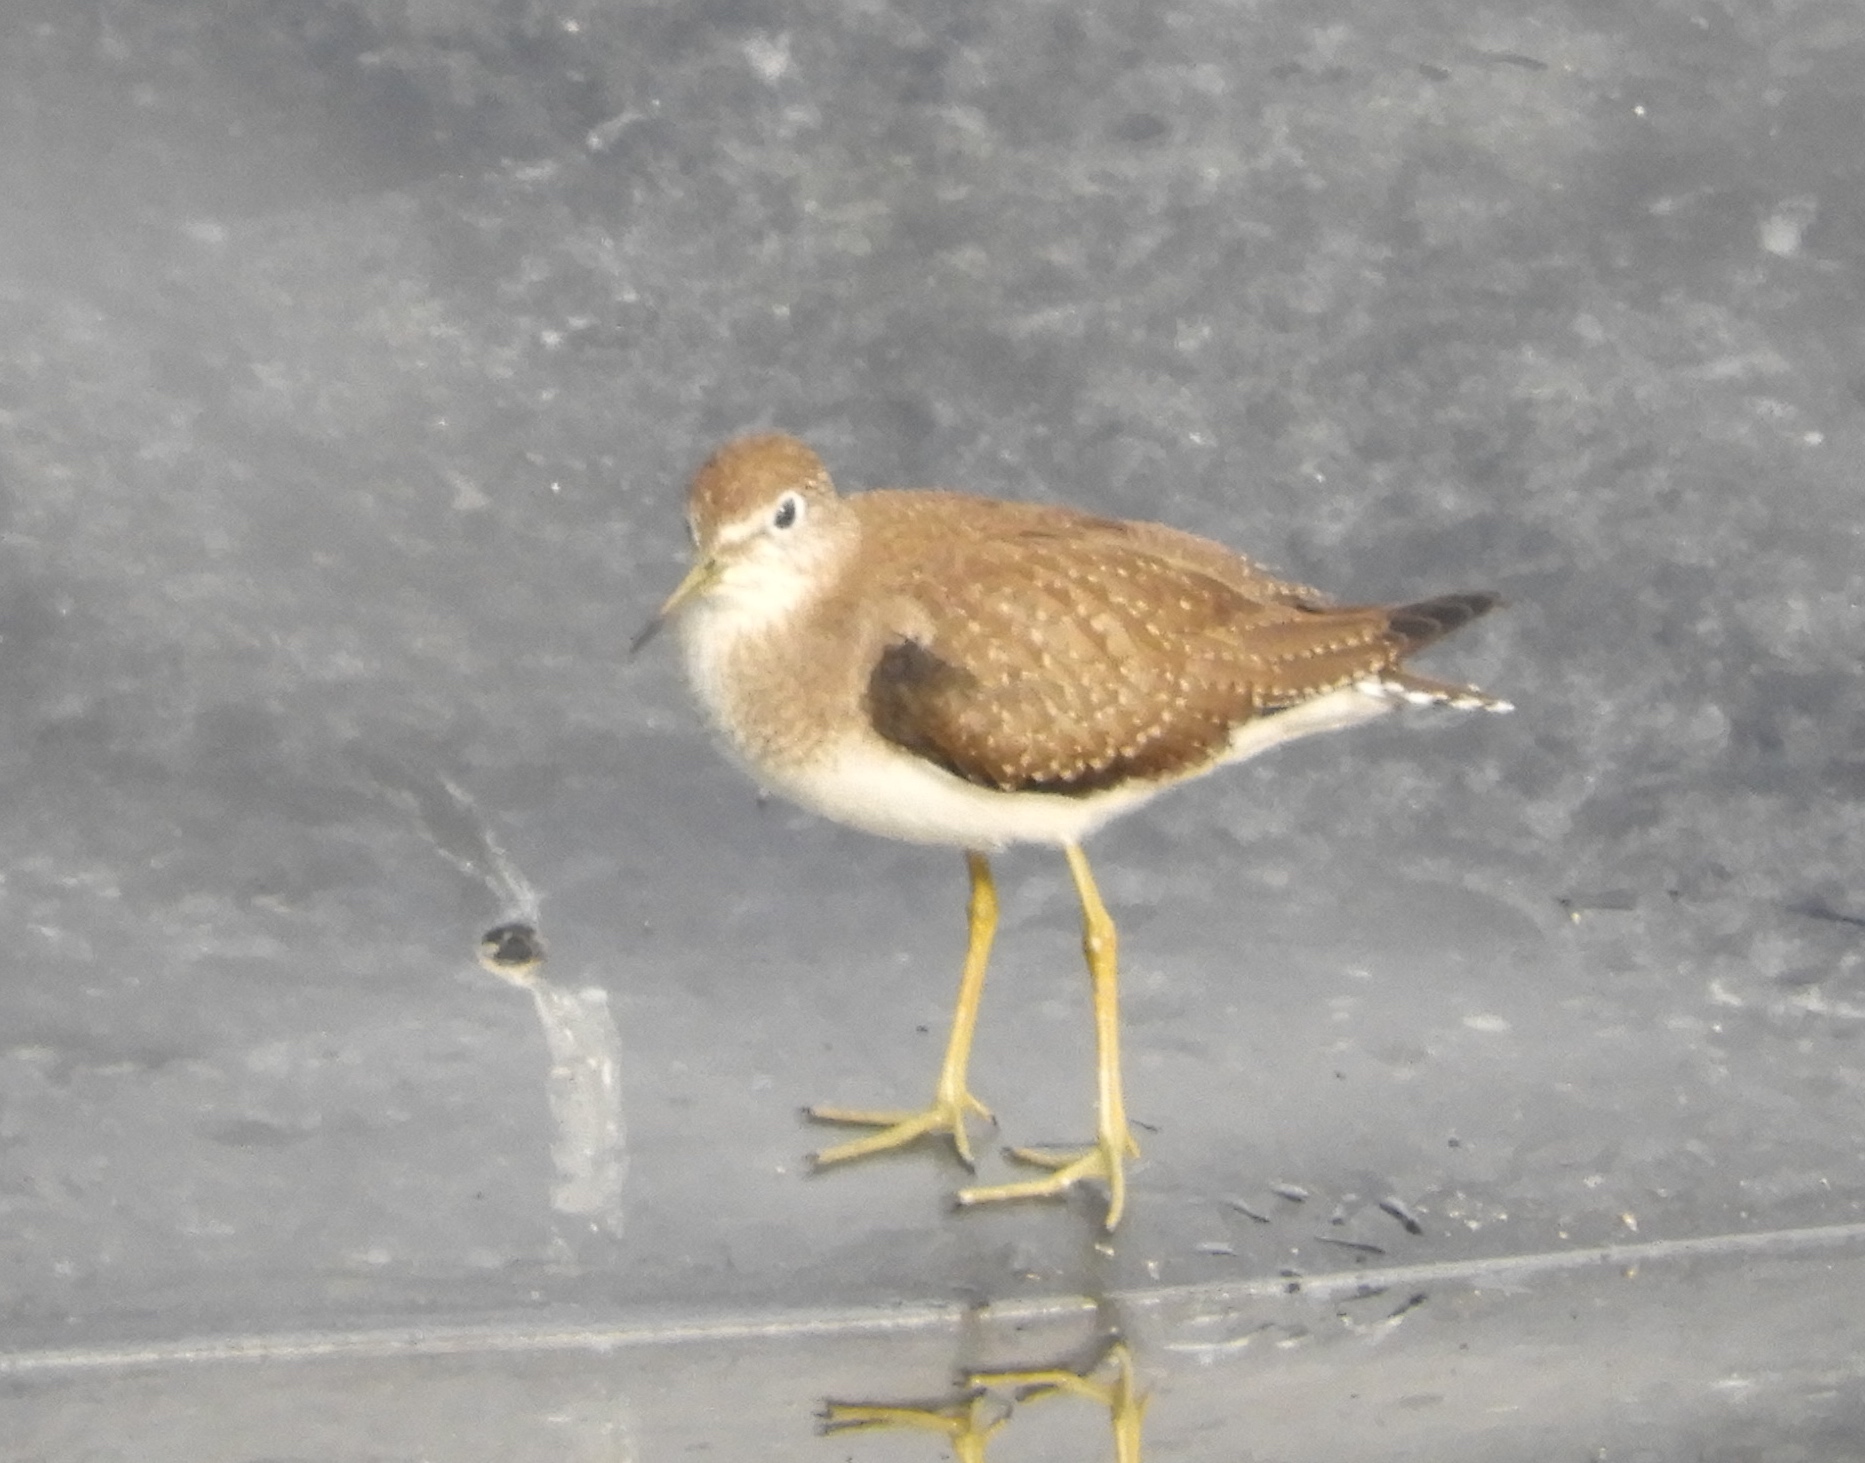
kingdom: Animalia
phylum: Chordata
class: Aves
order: Charadriiformes
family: Scolopacidae
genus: Tringa
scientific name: Tringa solitaria
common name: Solitary sandpiper
